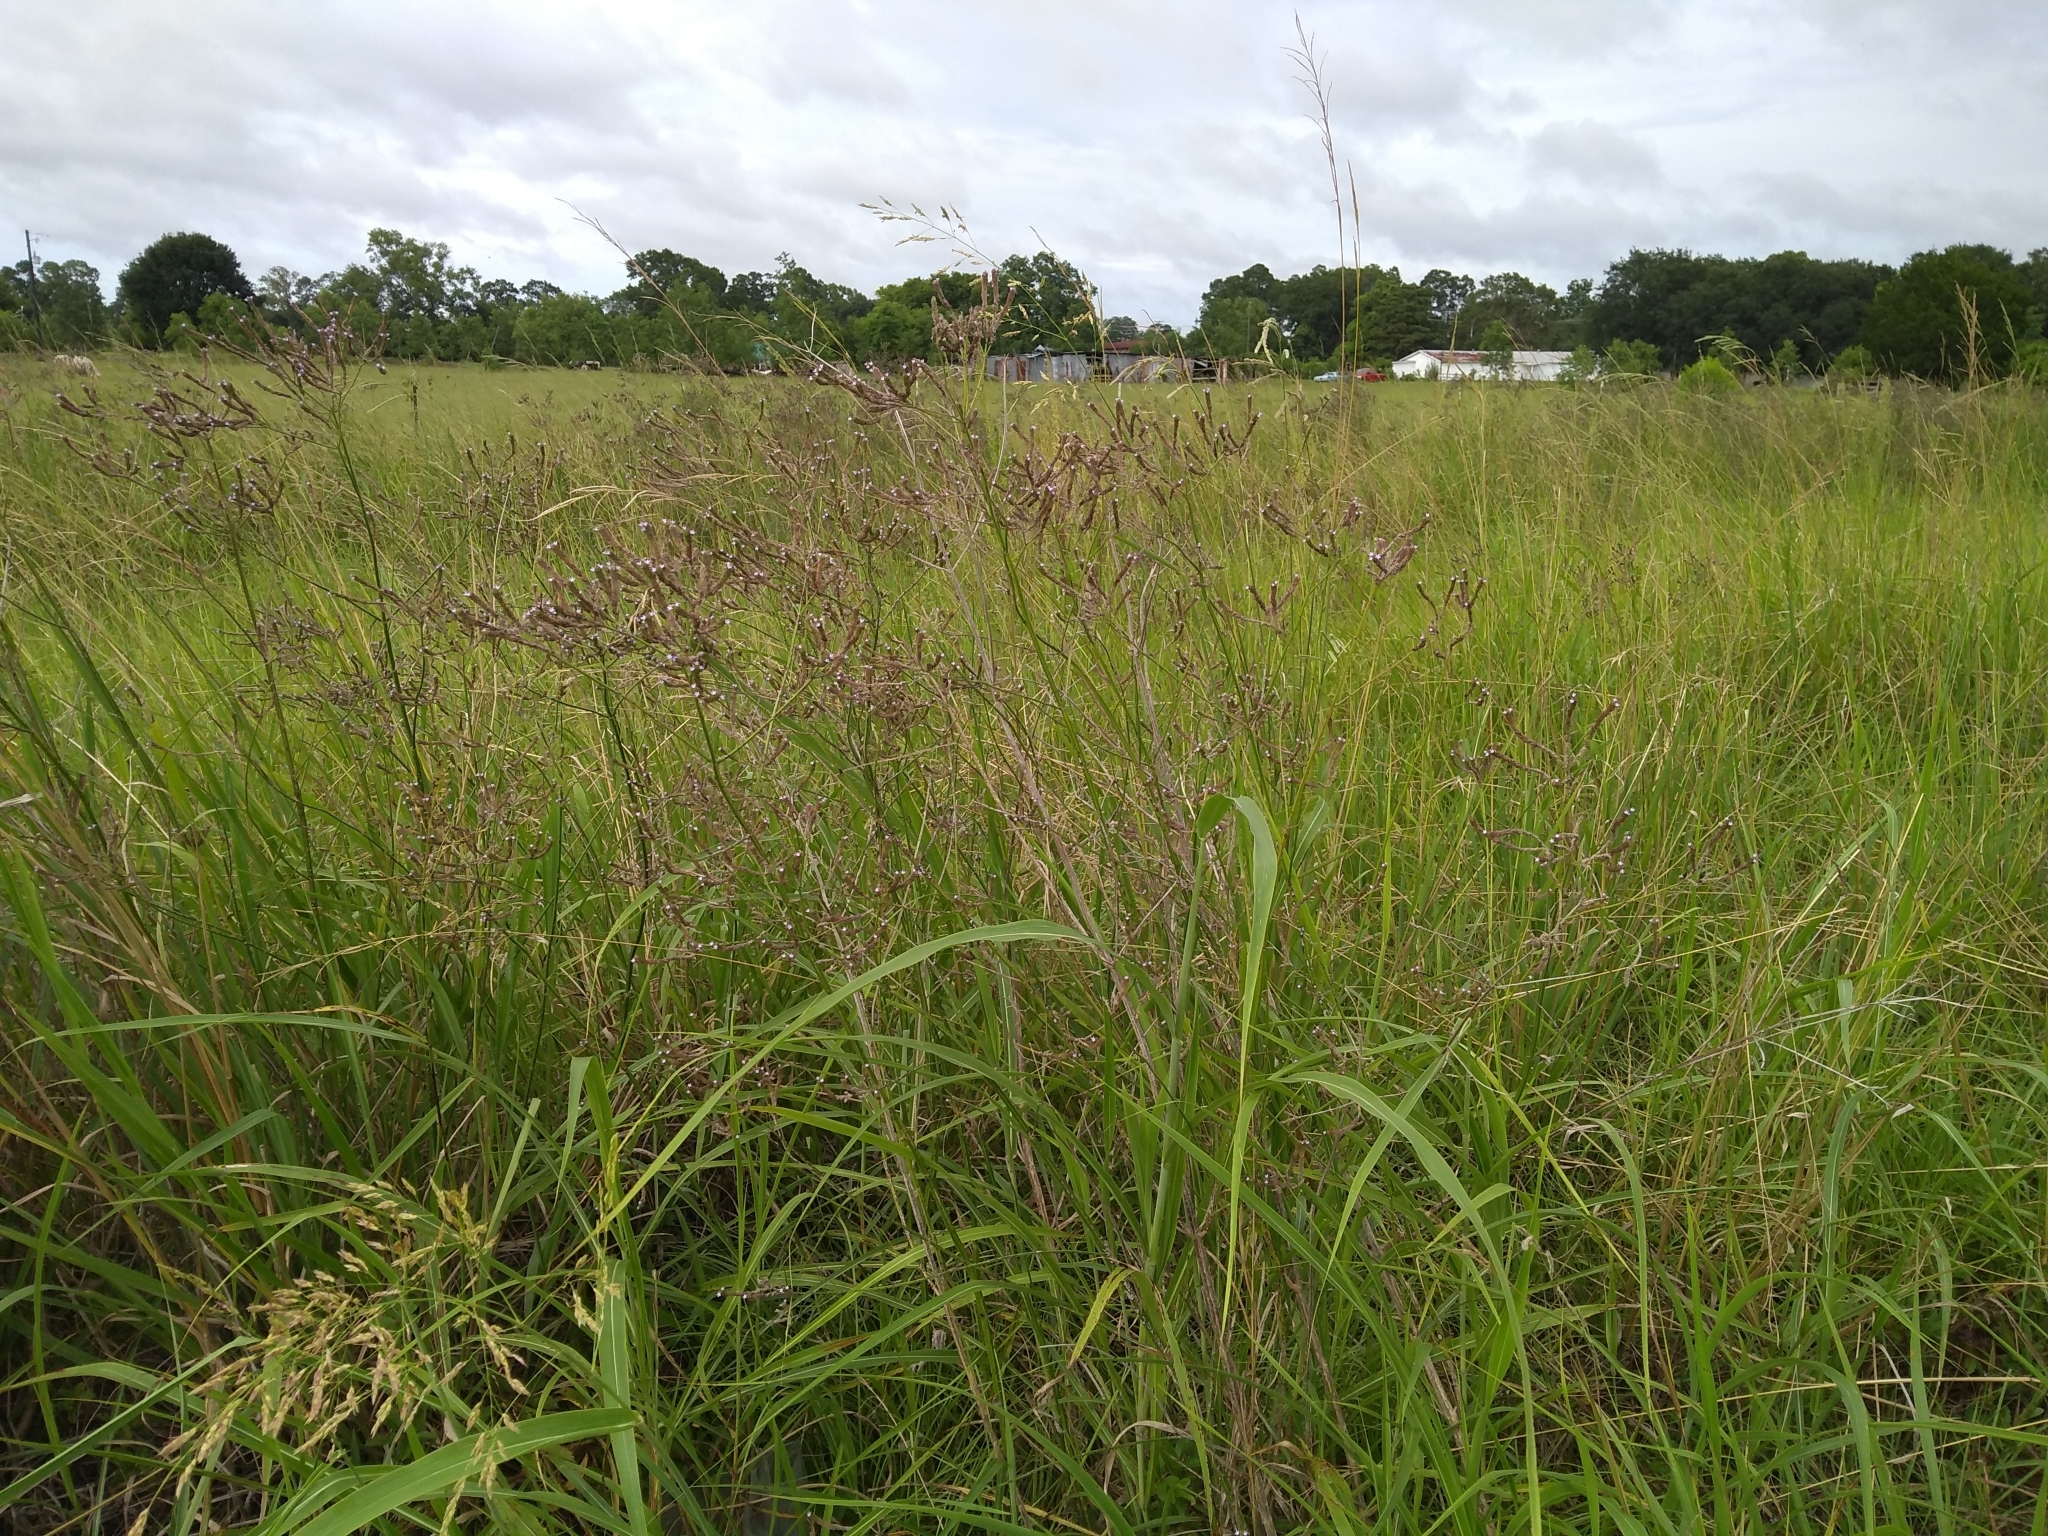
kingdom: Plantae
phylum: Tracheophyta
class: Magnoliopsida
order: Lamiales
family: Verbenaceae
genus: Verbena
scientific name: Verbena brasiliensis
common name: Brazilian vervain
